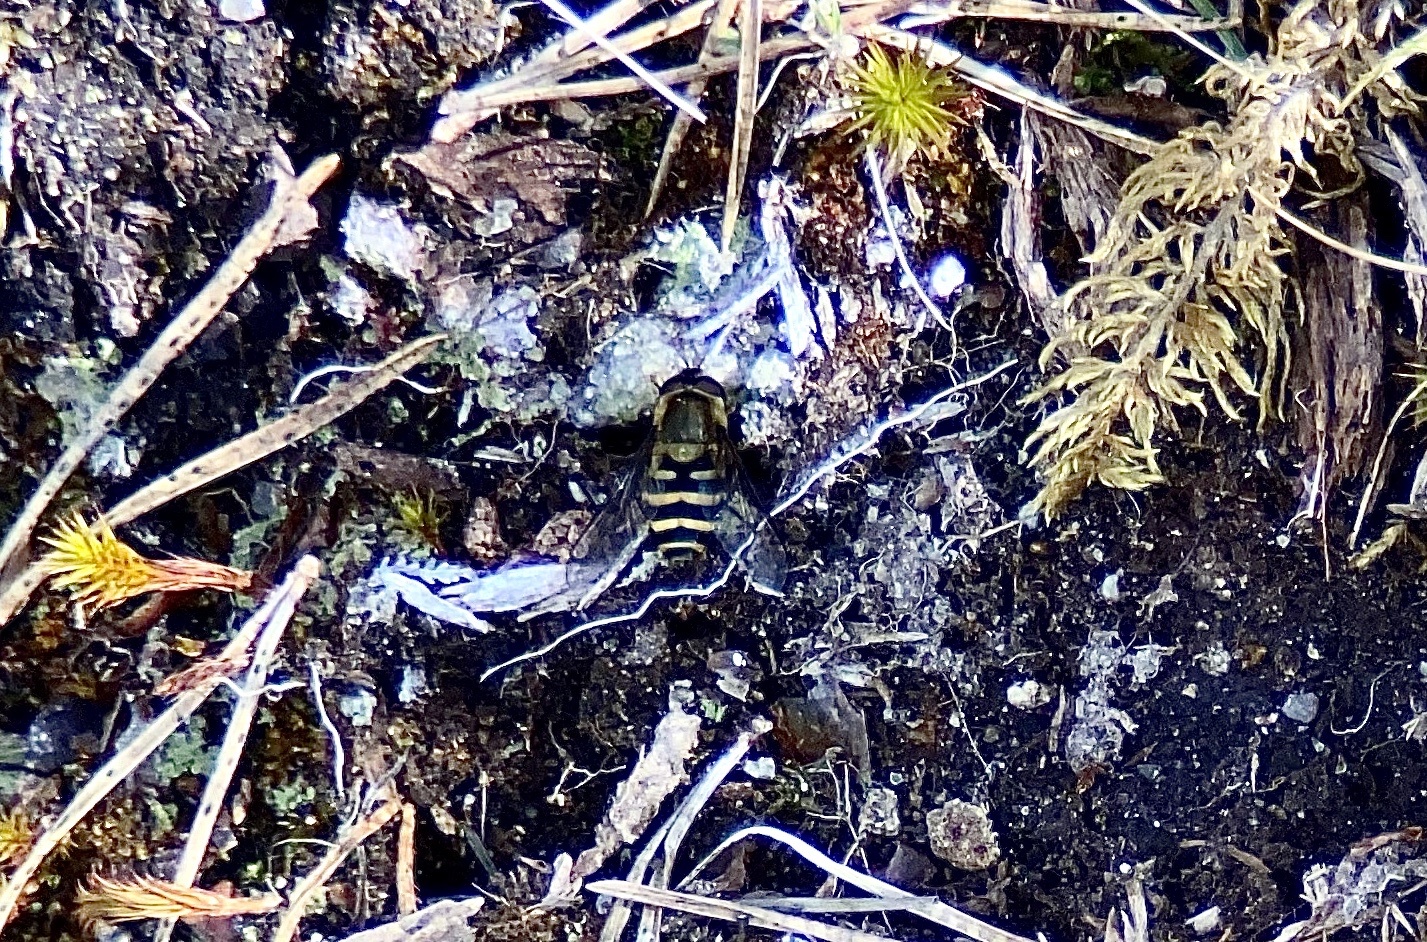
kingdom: Animalia
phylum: Arthropoda
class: Insecta
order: Diptera
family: Syrphidae
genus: Syrphus
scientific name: Syrphus
